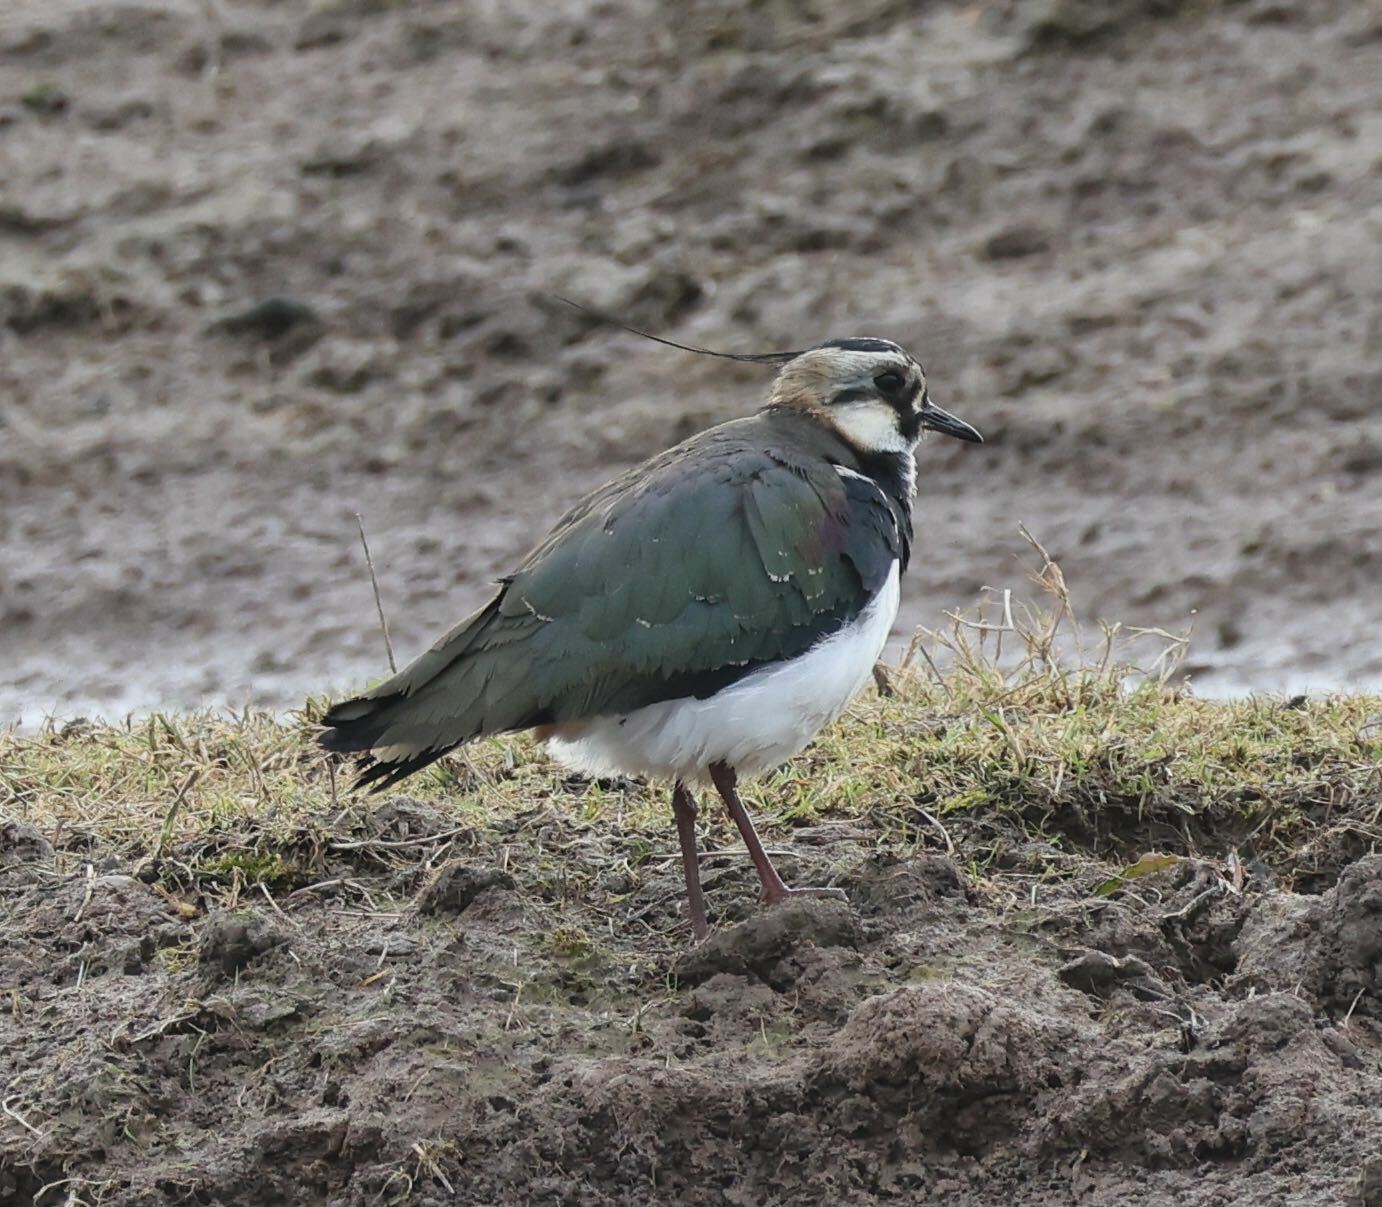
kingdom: Animalia
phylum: Chordata
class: Aves
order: Charadriiformes
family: Charadriidae
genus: Vanellus
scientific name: Vanellus vanellus
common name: Northern lapwing
